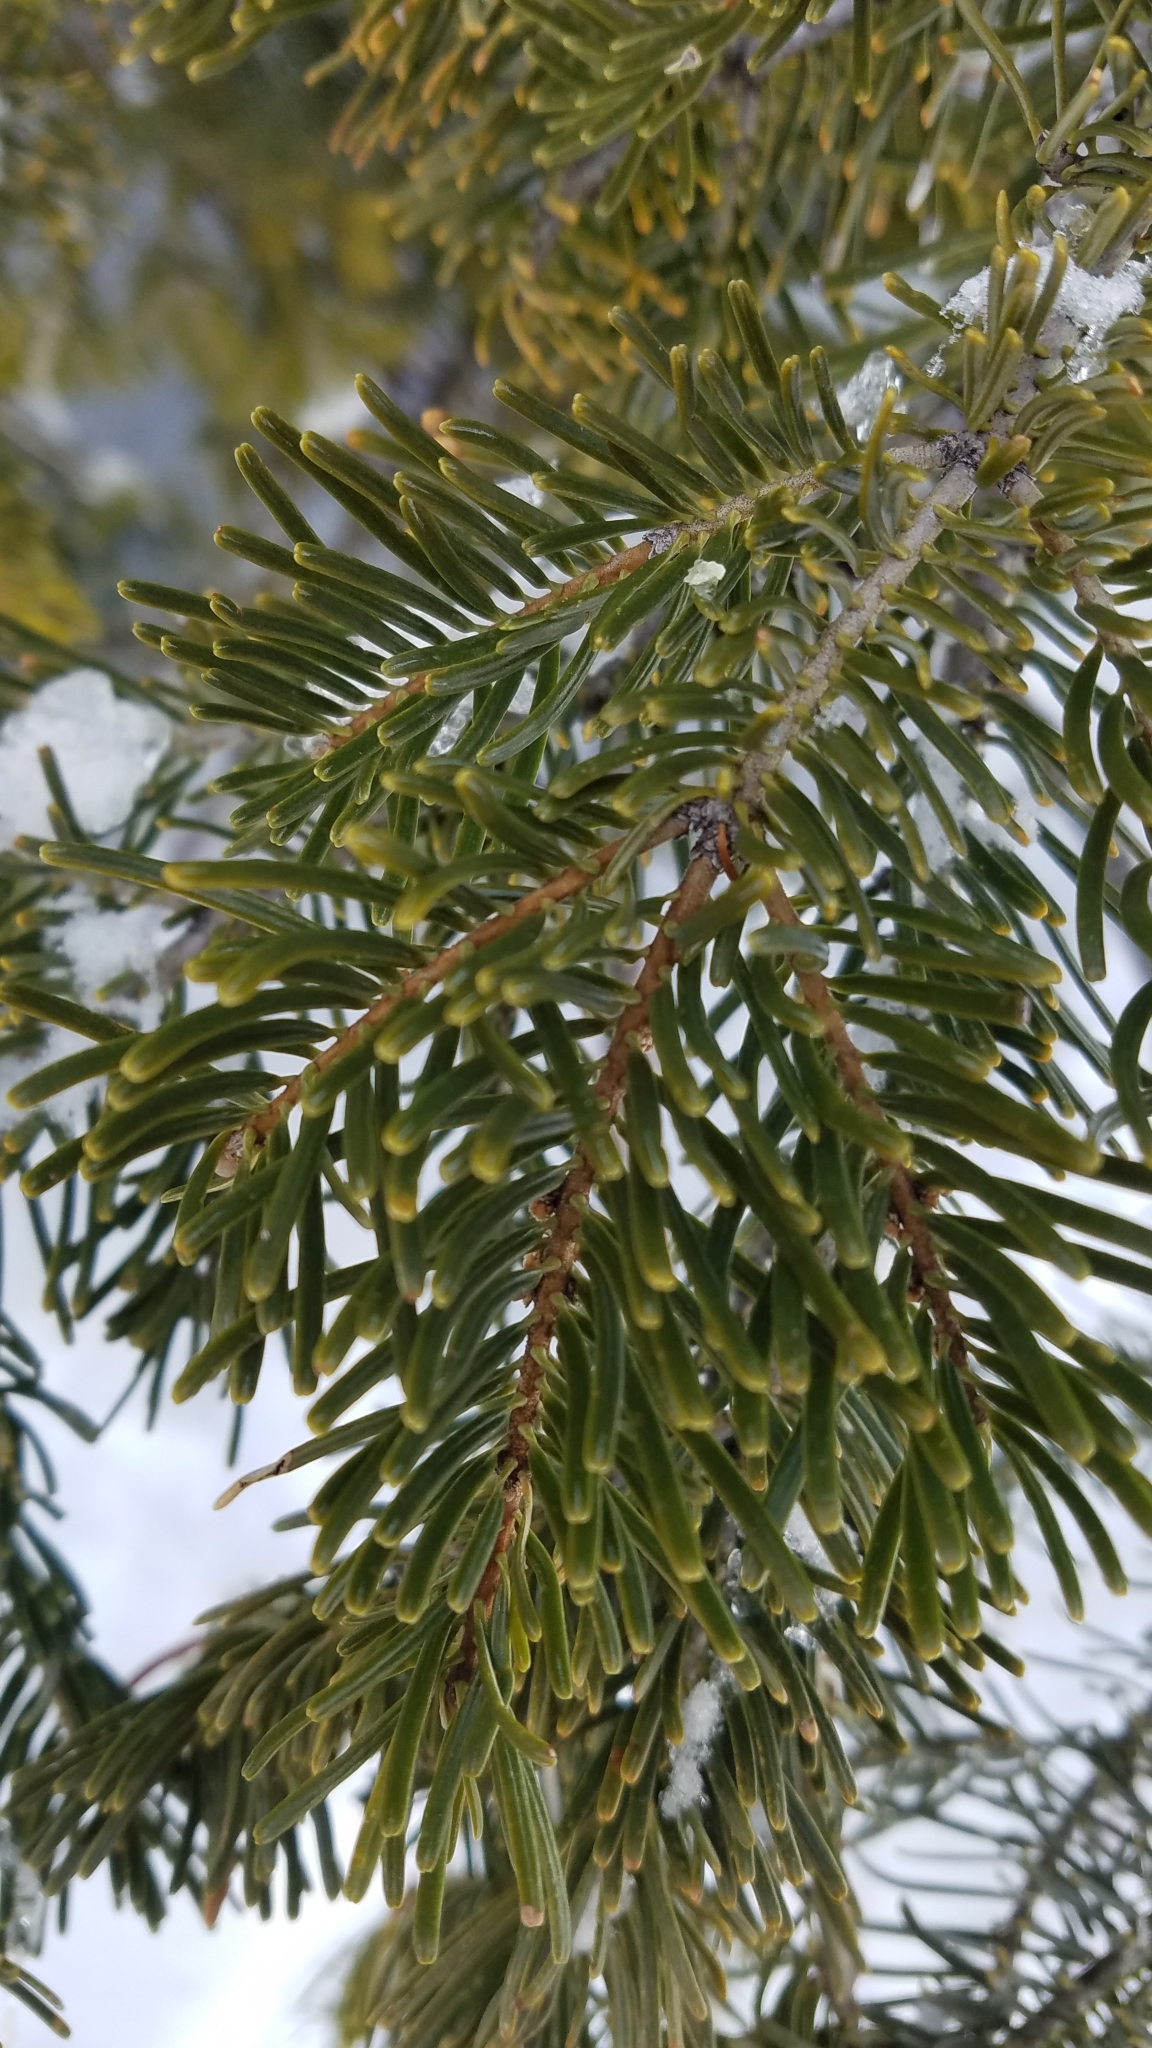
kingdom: Plantae
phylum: Tracheophyta
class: Pinopsida
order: Pinales
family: Pinaceae
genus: Abies
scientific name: Abies grandis
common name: Giant fir
